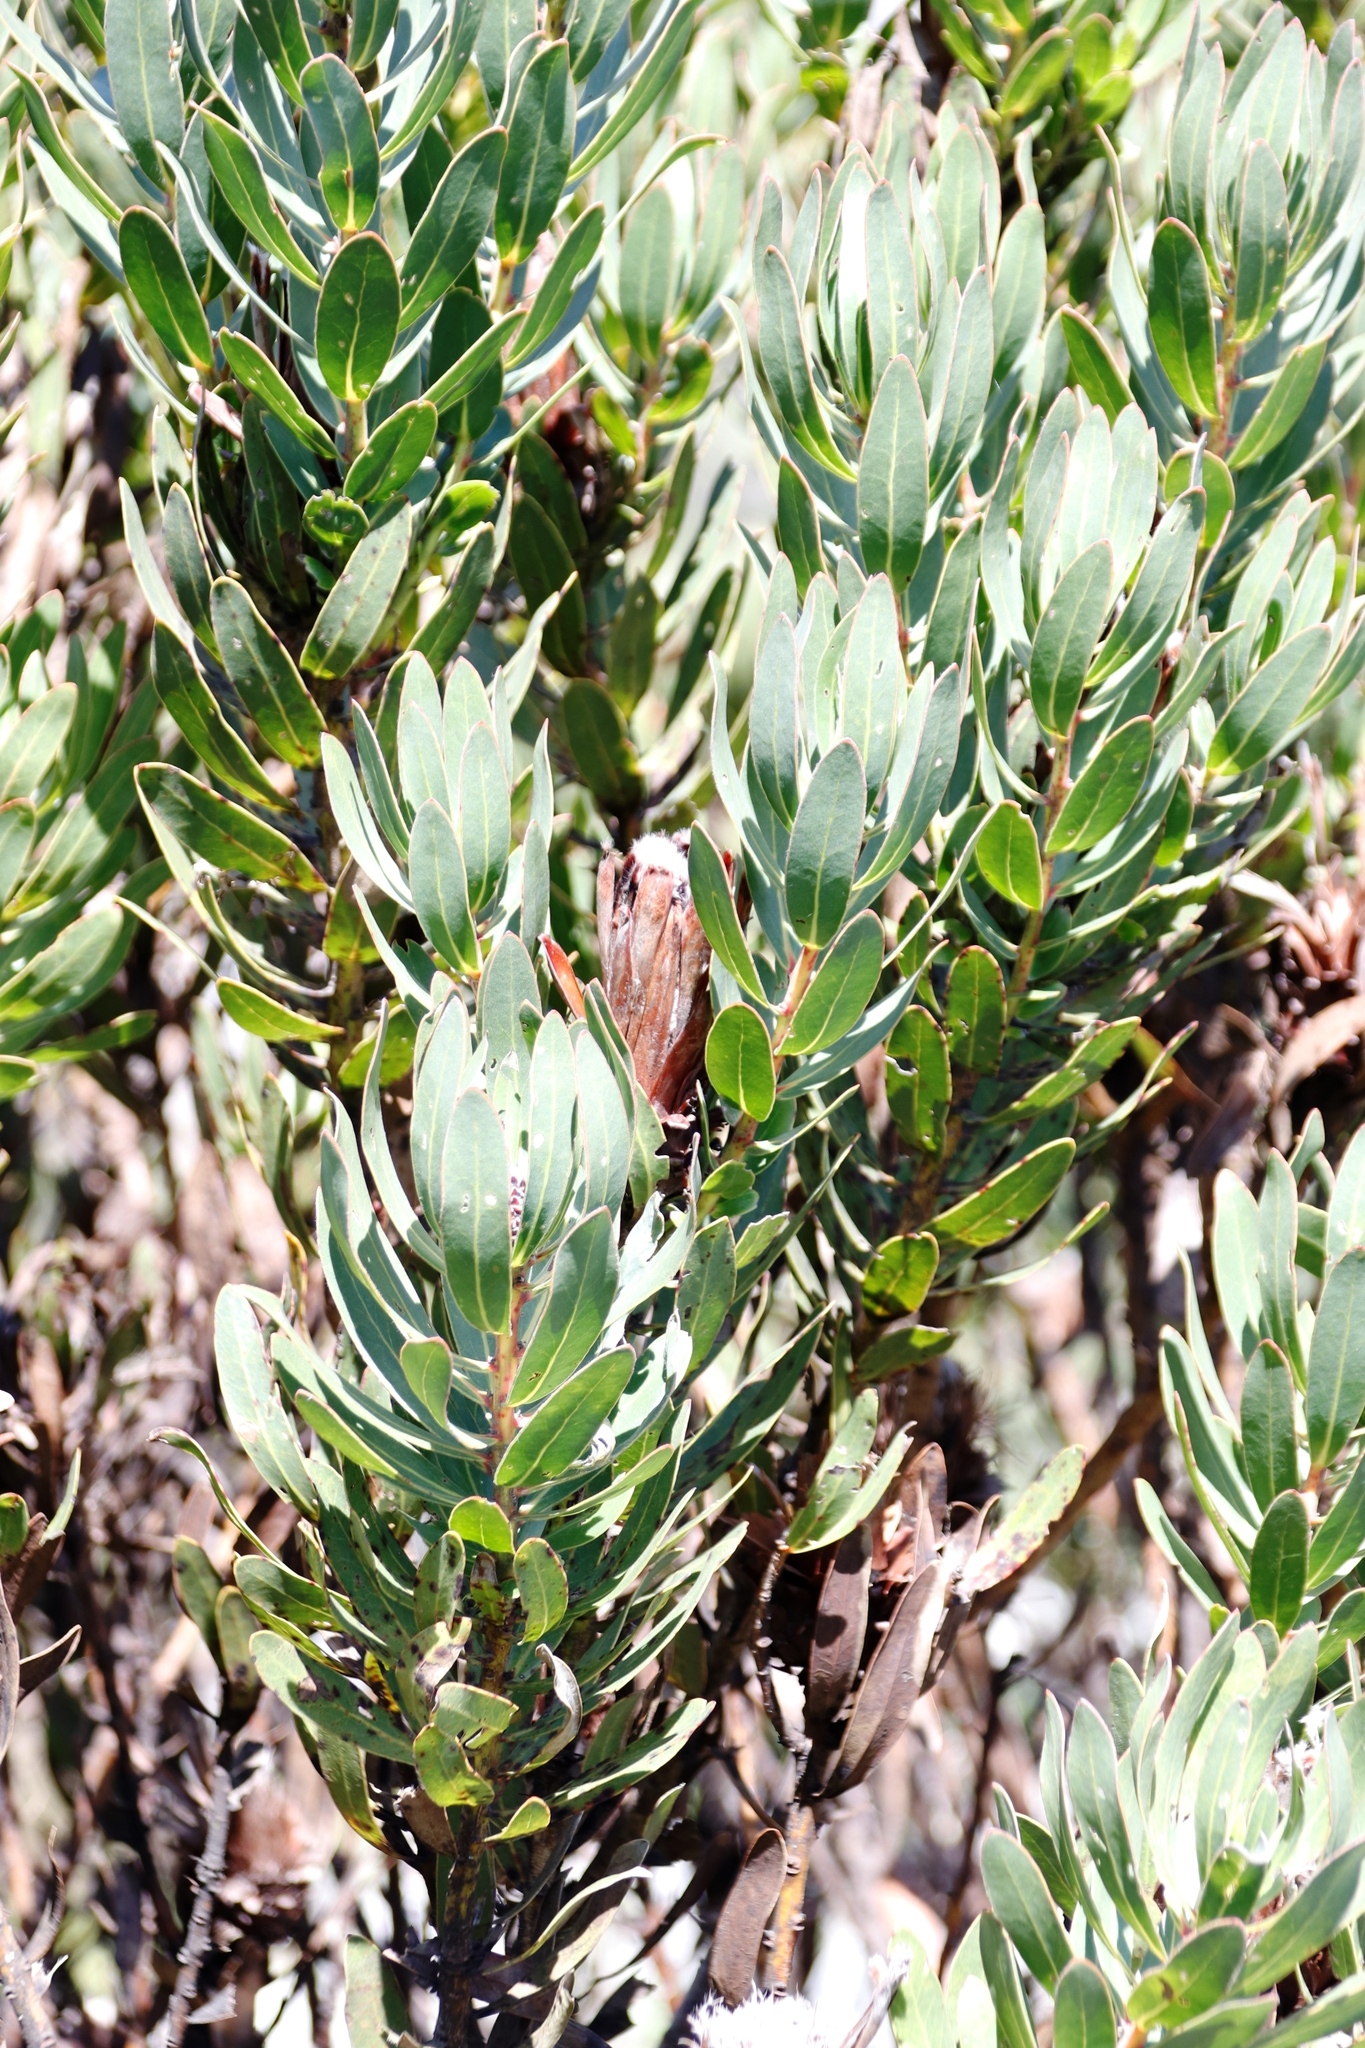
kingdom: Plantae
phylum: Tracheophyta
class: Magnoliopsida
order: Proteales
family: Proteaceae
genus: Protea
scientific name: Protea lepidocarpodendron
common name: Black-bearded protea
